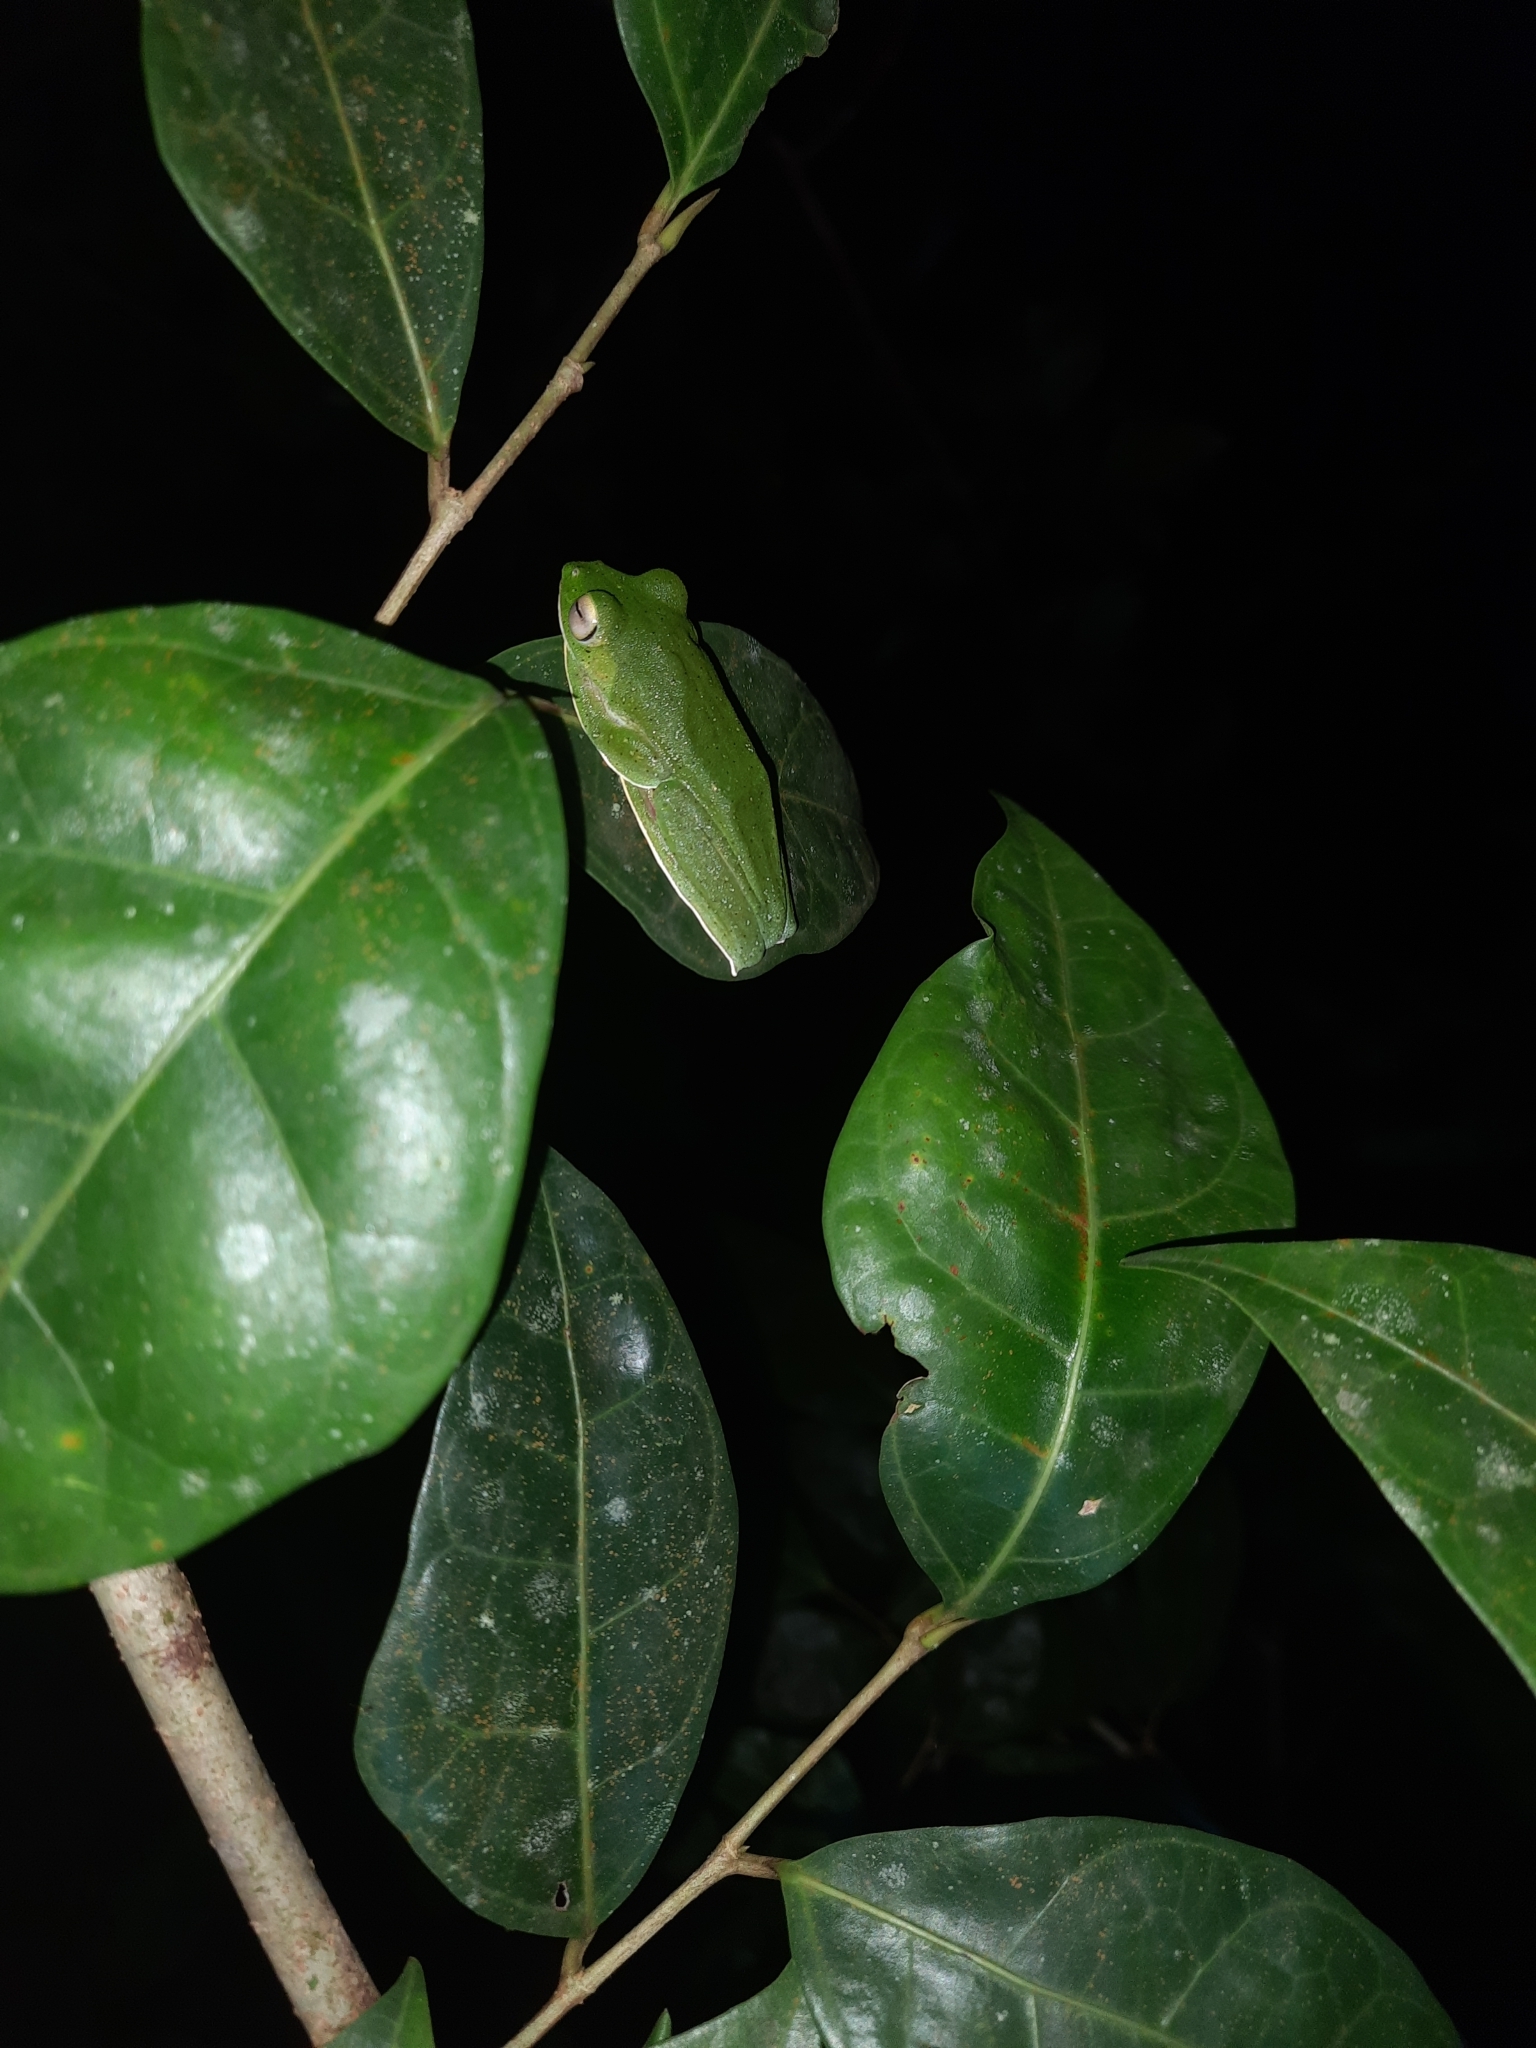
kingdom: Animalia
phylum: Chordata
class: Amphibia
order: Anura
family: Rhacophoridae
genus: Rhacophorus
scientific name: Rhacophorus malabaricus
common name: Malabar gliding frog
